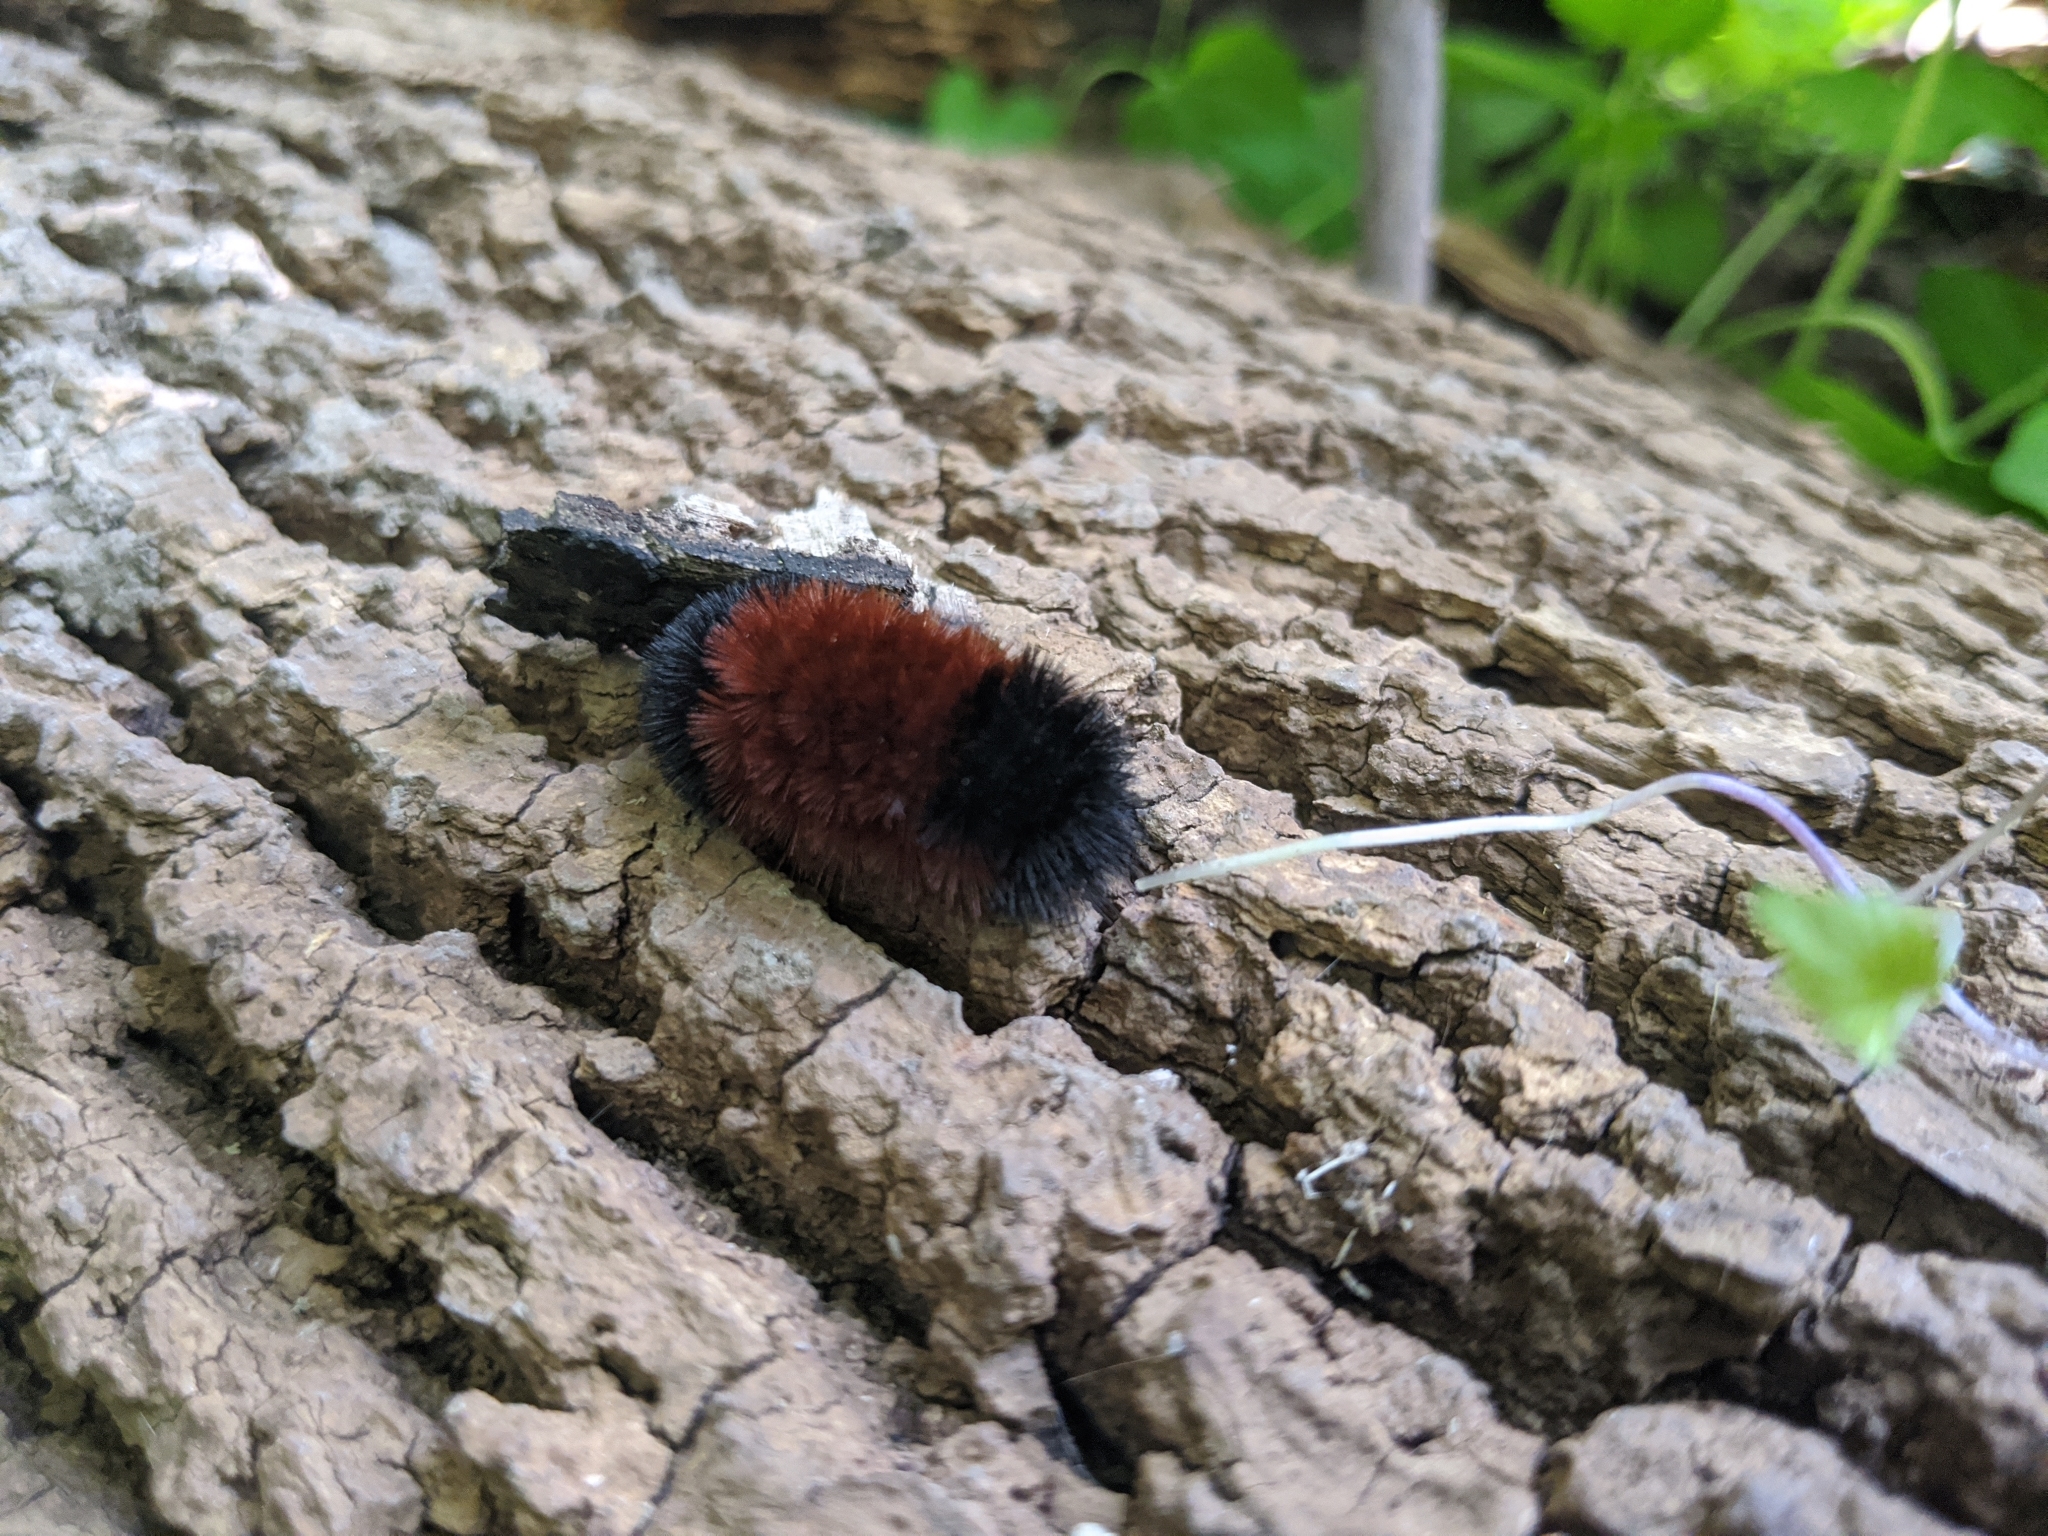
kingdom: Animalia
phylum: Arthropoda
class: Insecta
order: Lepidoptera
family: Erebidae
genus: Pyrrharctia
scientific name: Pyrrharctia isabella
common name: Isabella tiger moth
